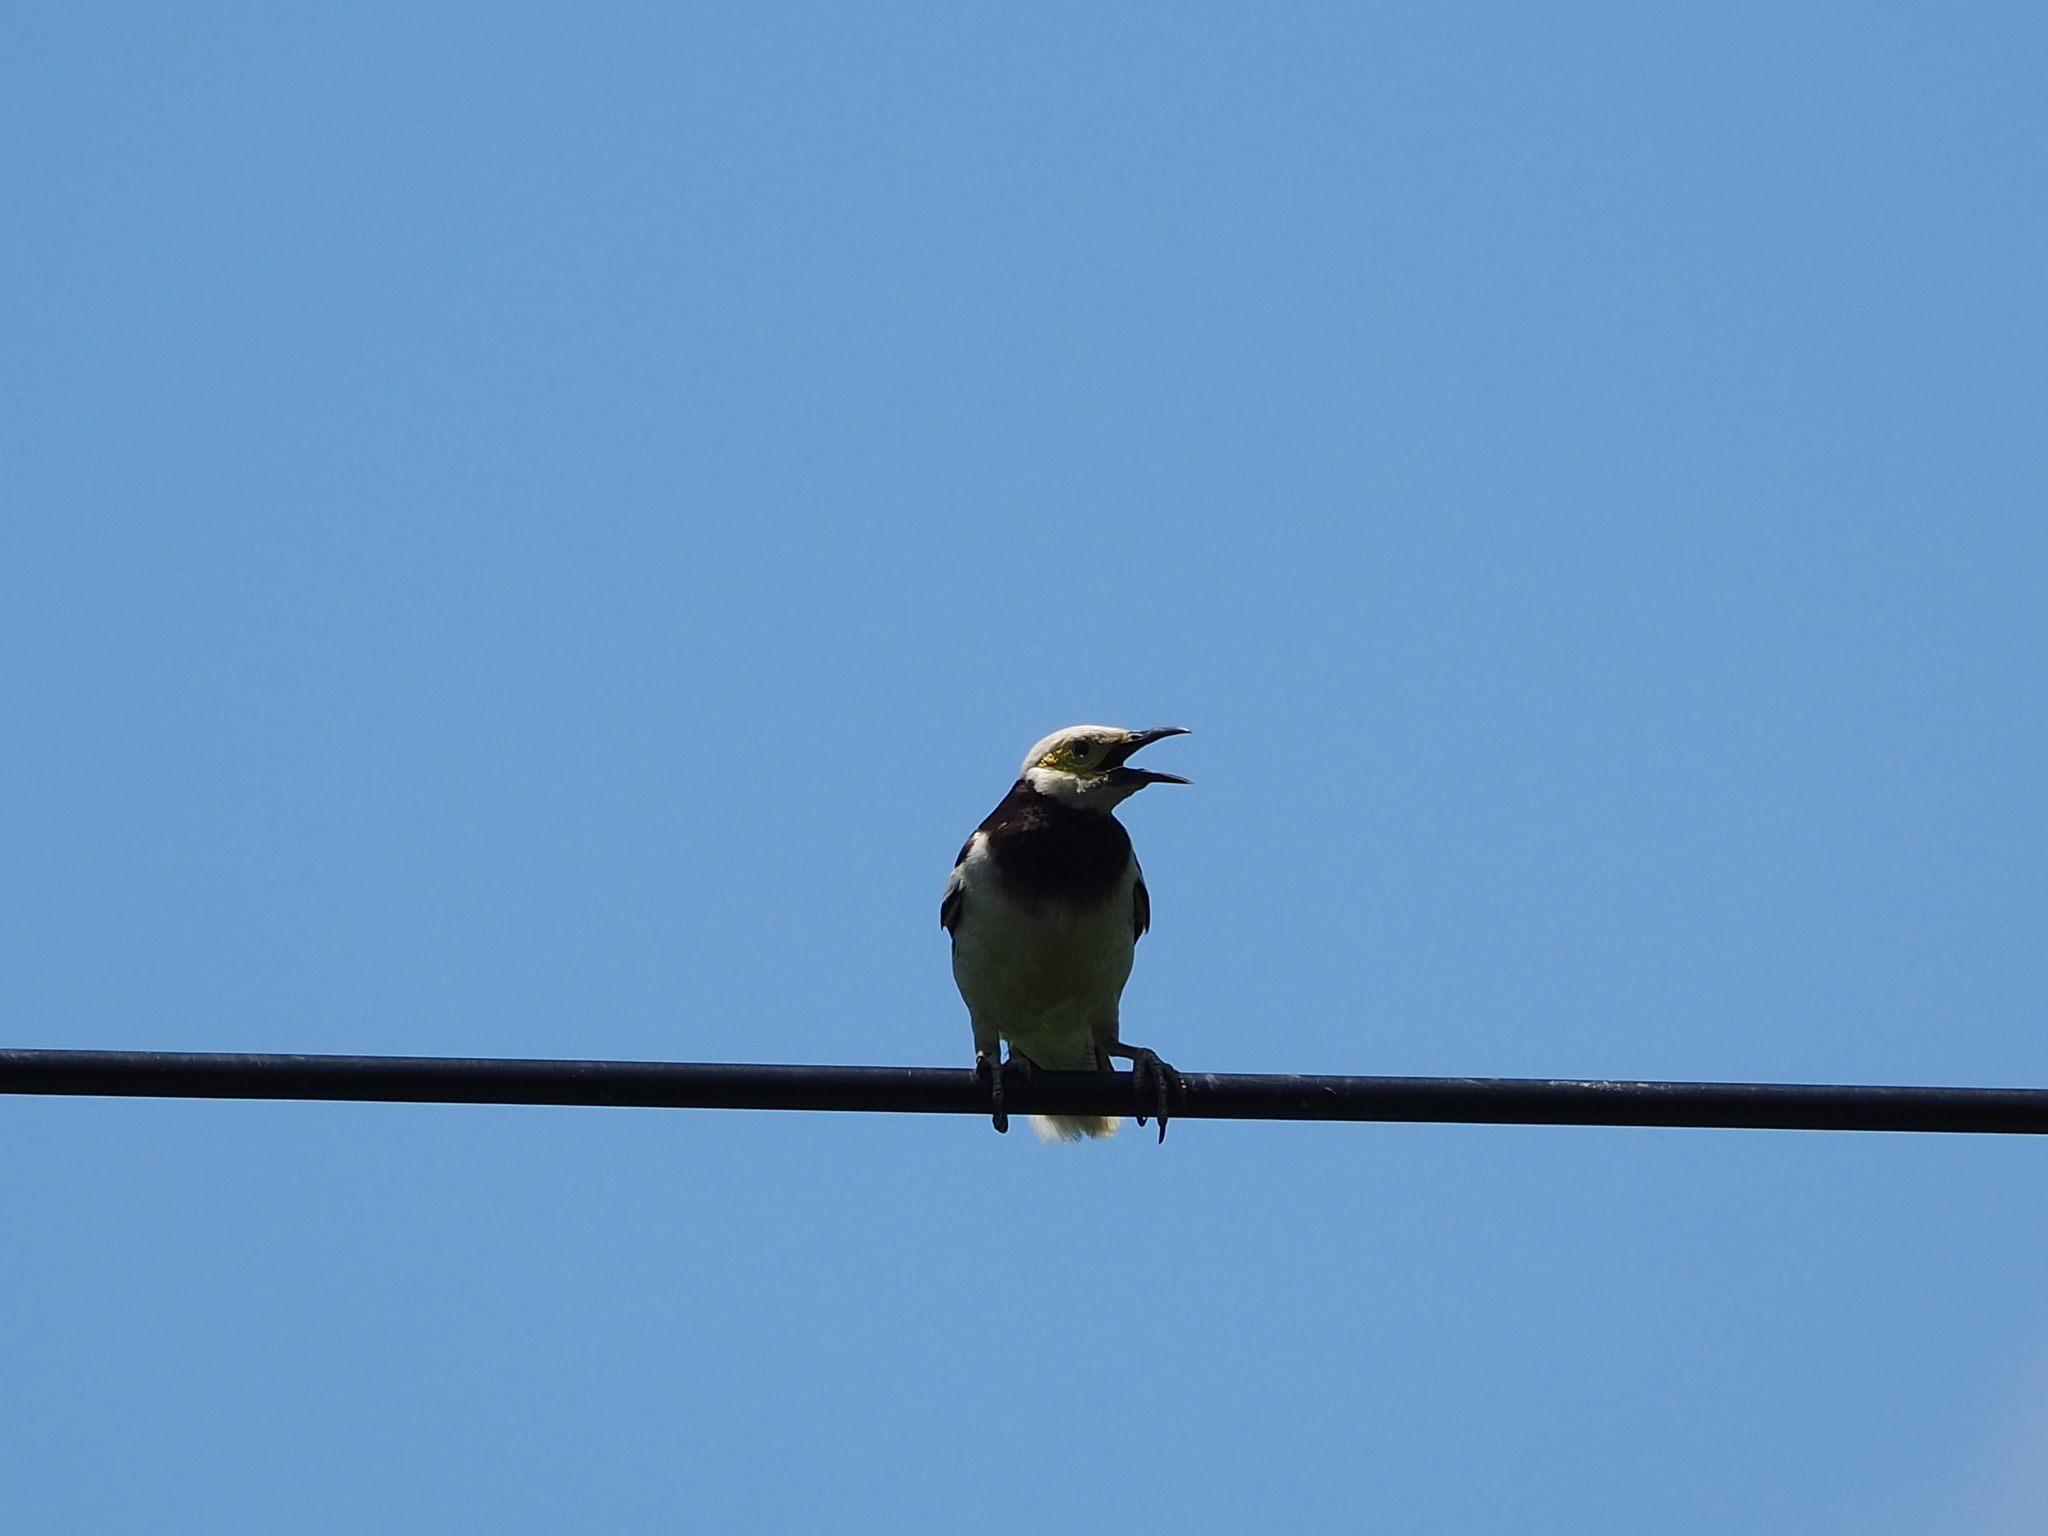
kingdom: Animalia
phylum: Chordata
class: Aves
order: Passeriformes
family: Sturnidae
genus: Gracupica
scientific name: Gracupica nigricollis
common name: Black-collared starling
